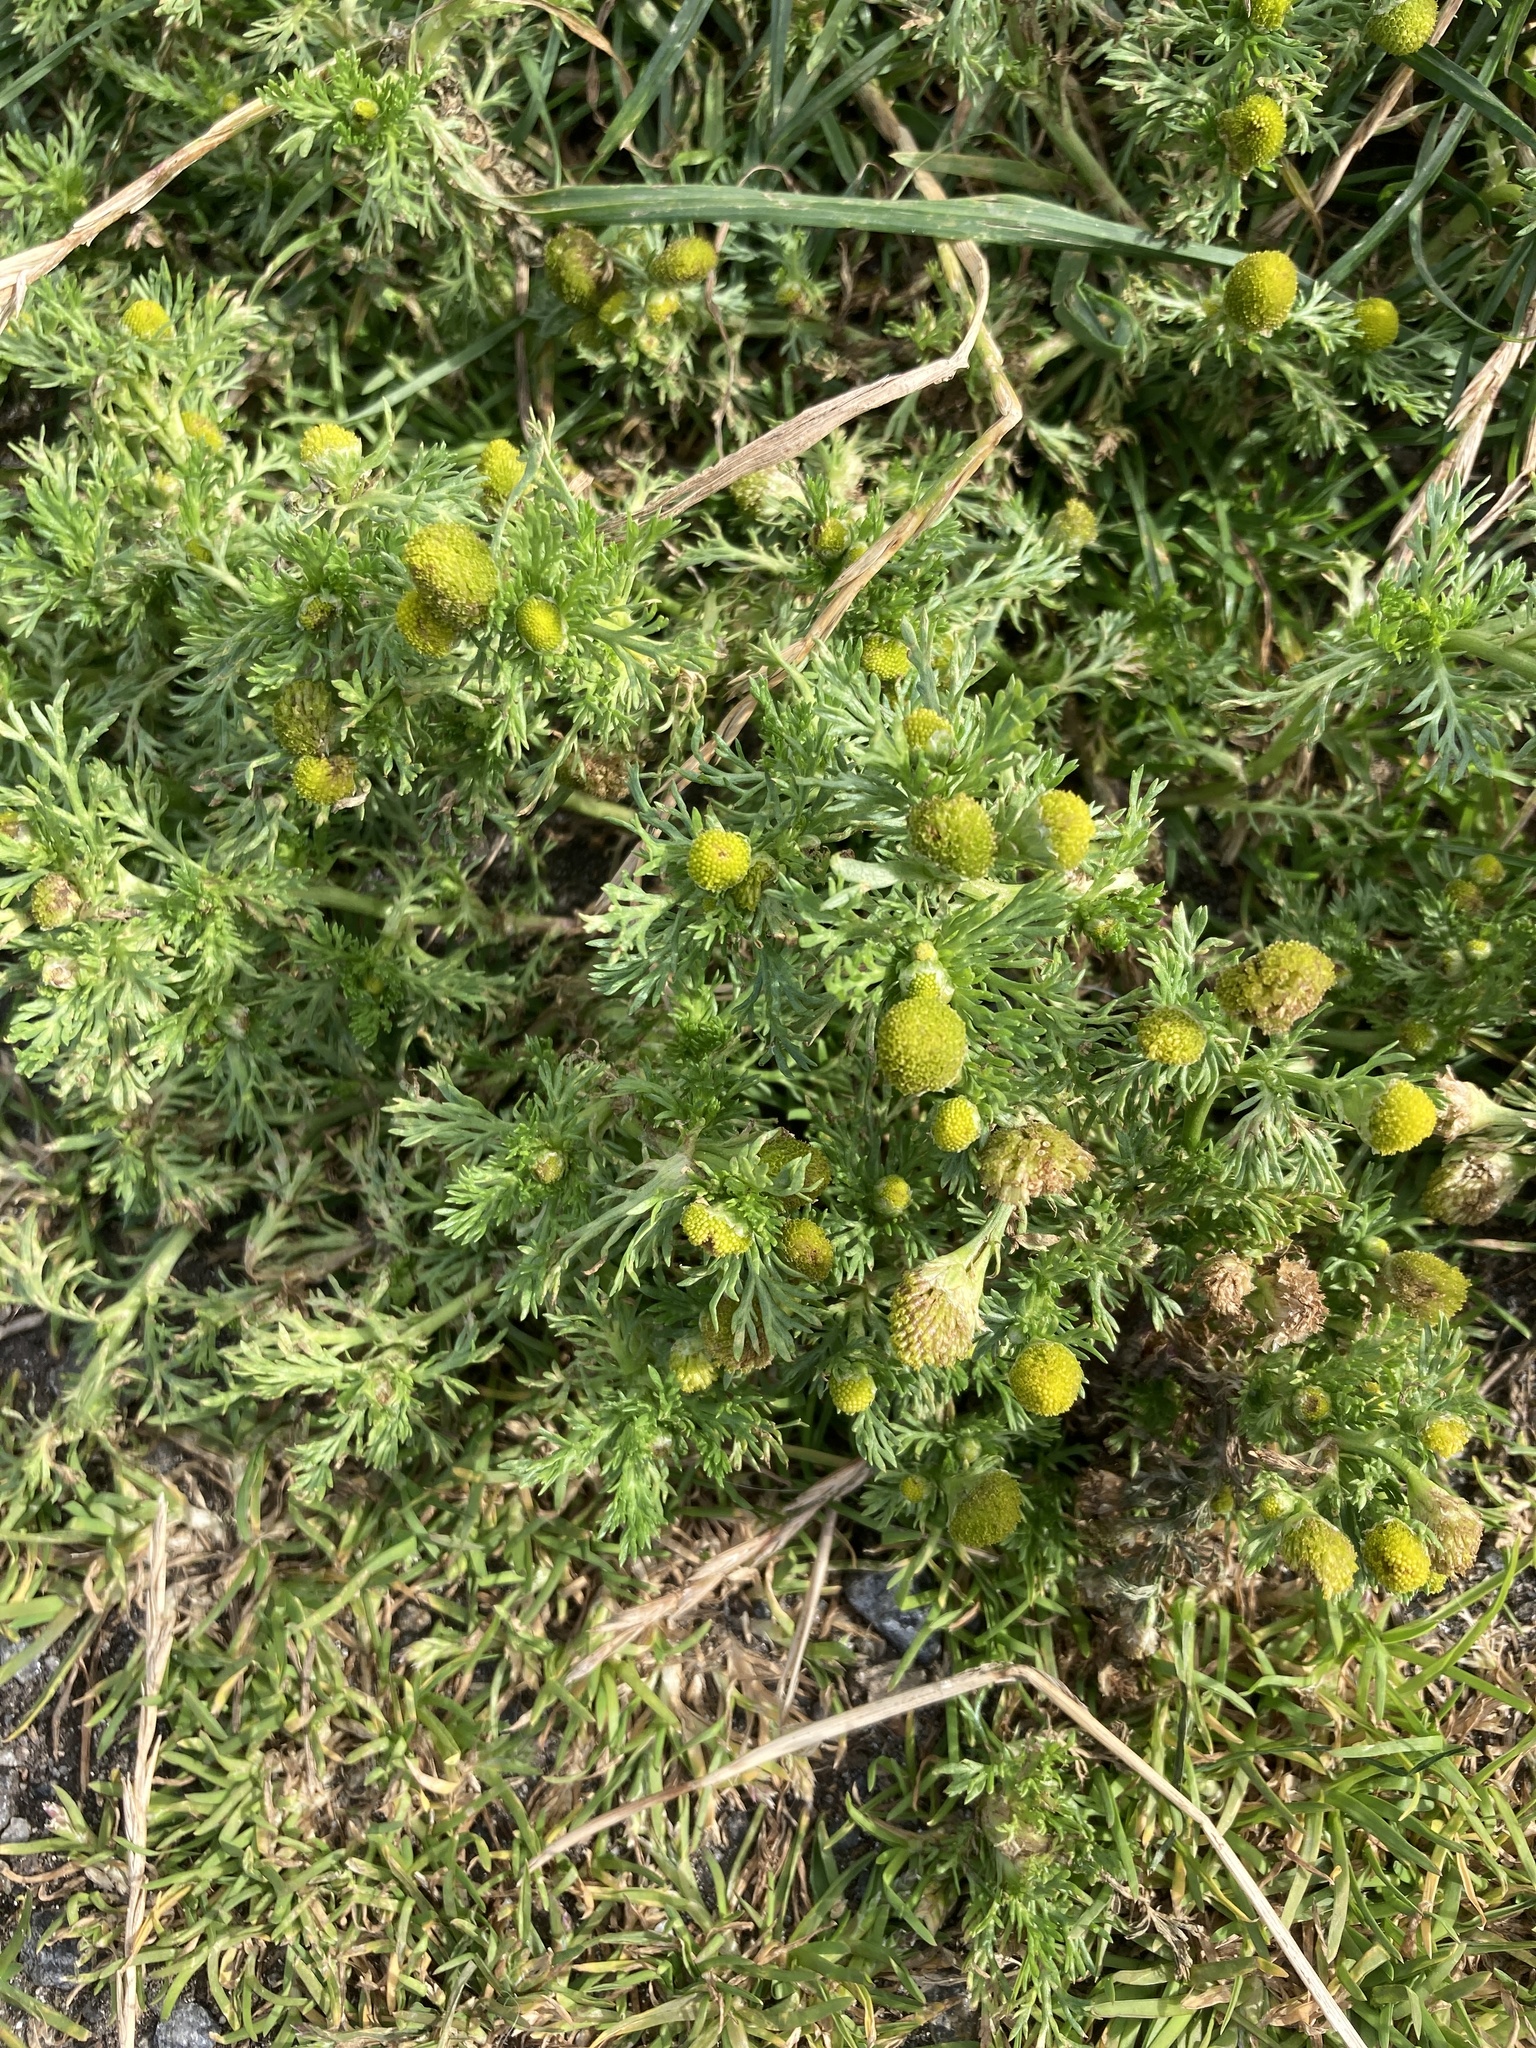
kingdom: Plantae
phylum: Tracheophyta
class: Magnoliopsida
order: Asterales
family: Asteraceae
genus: Matricaria
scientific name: Matricaria discoidea
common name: Disc mayweed
